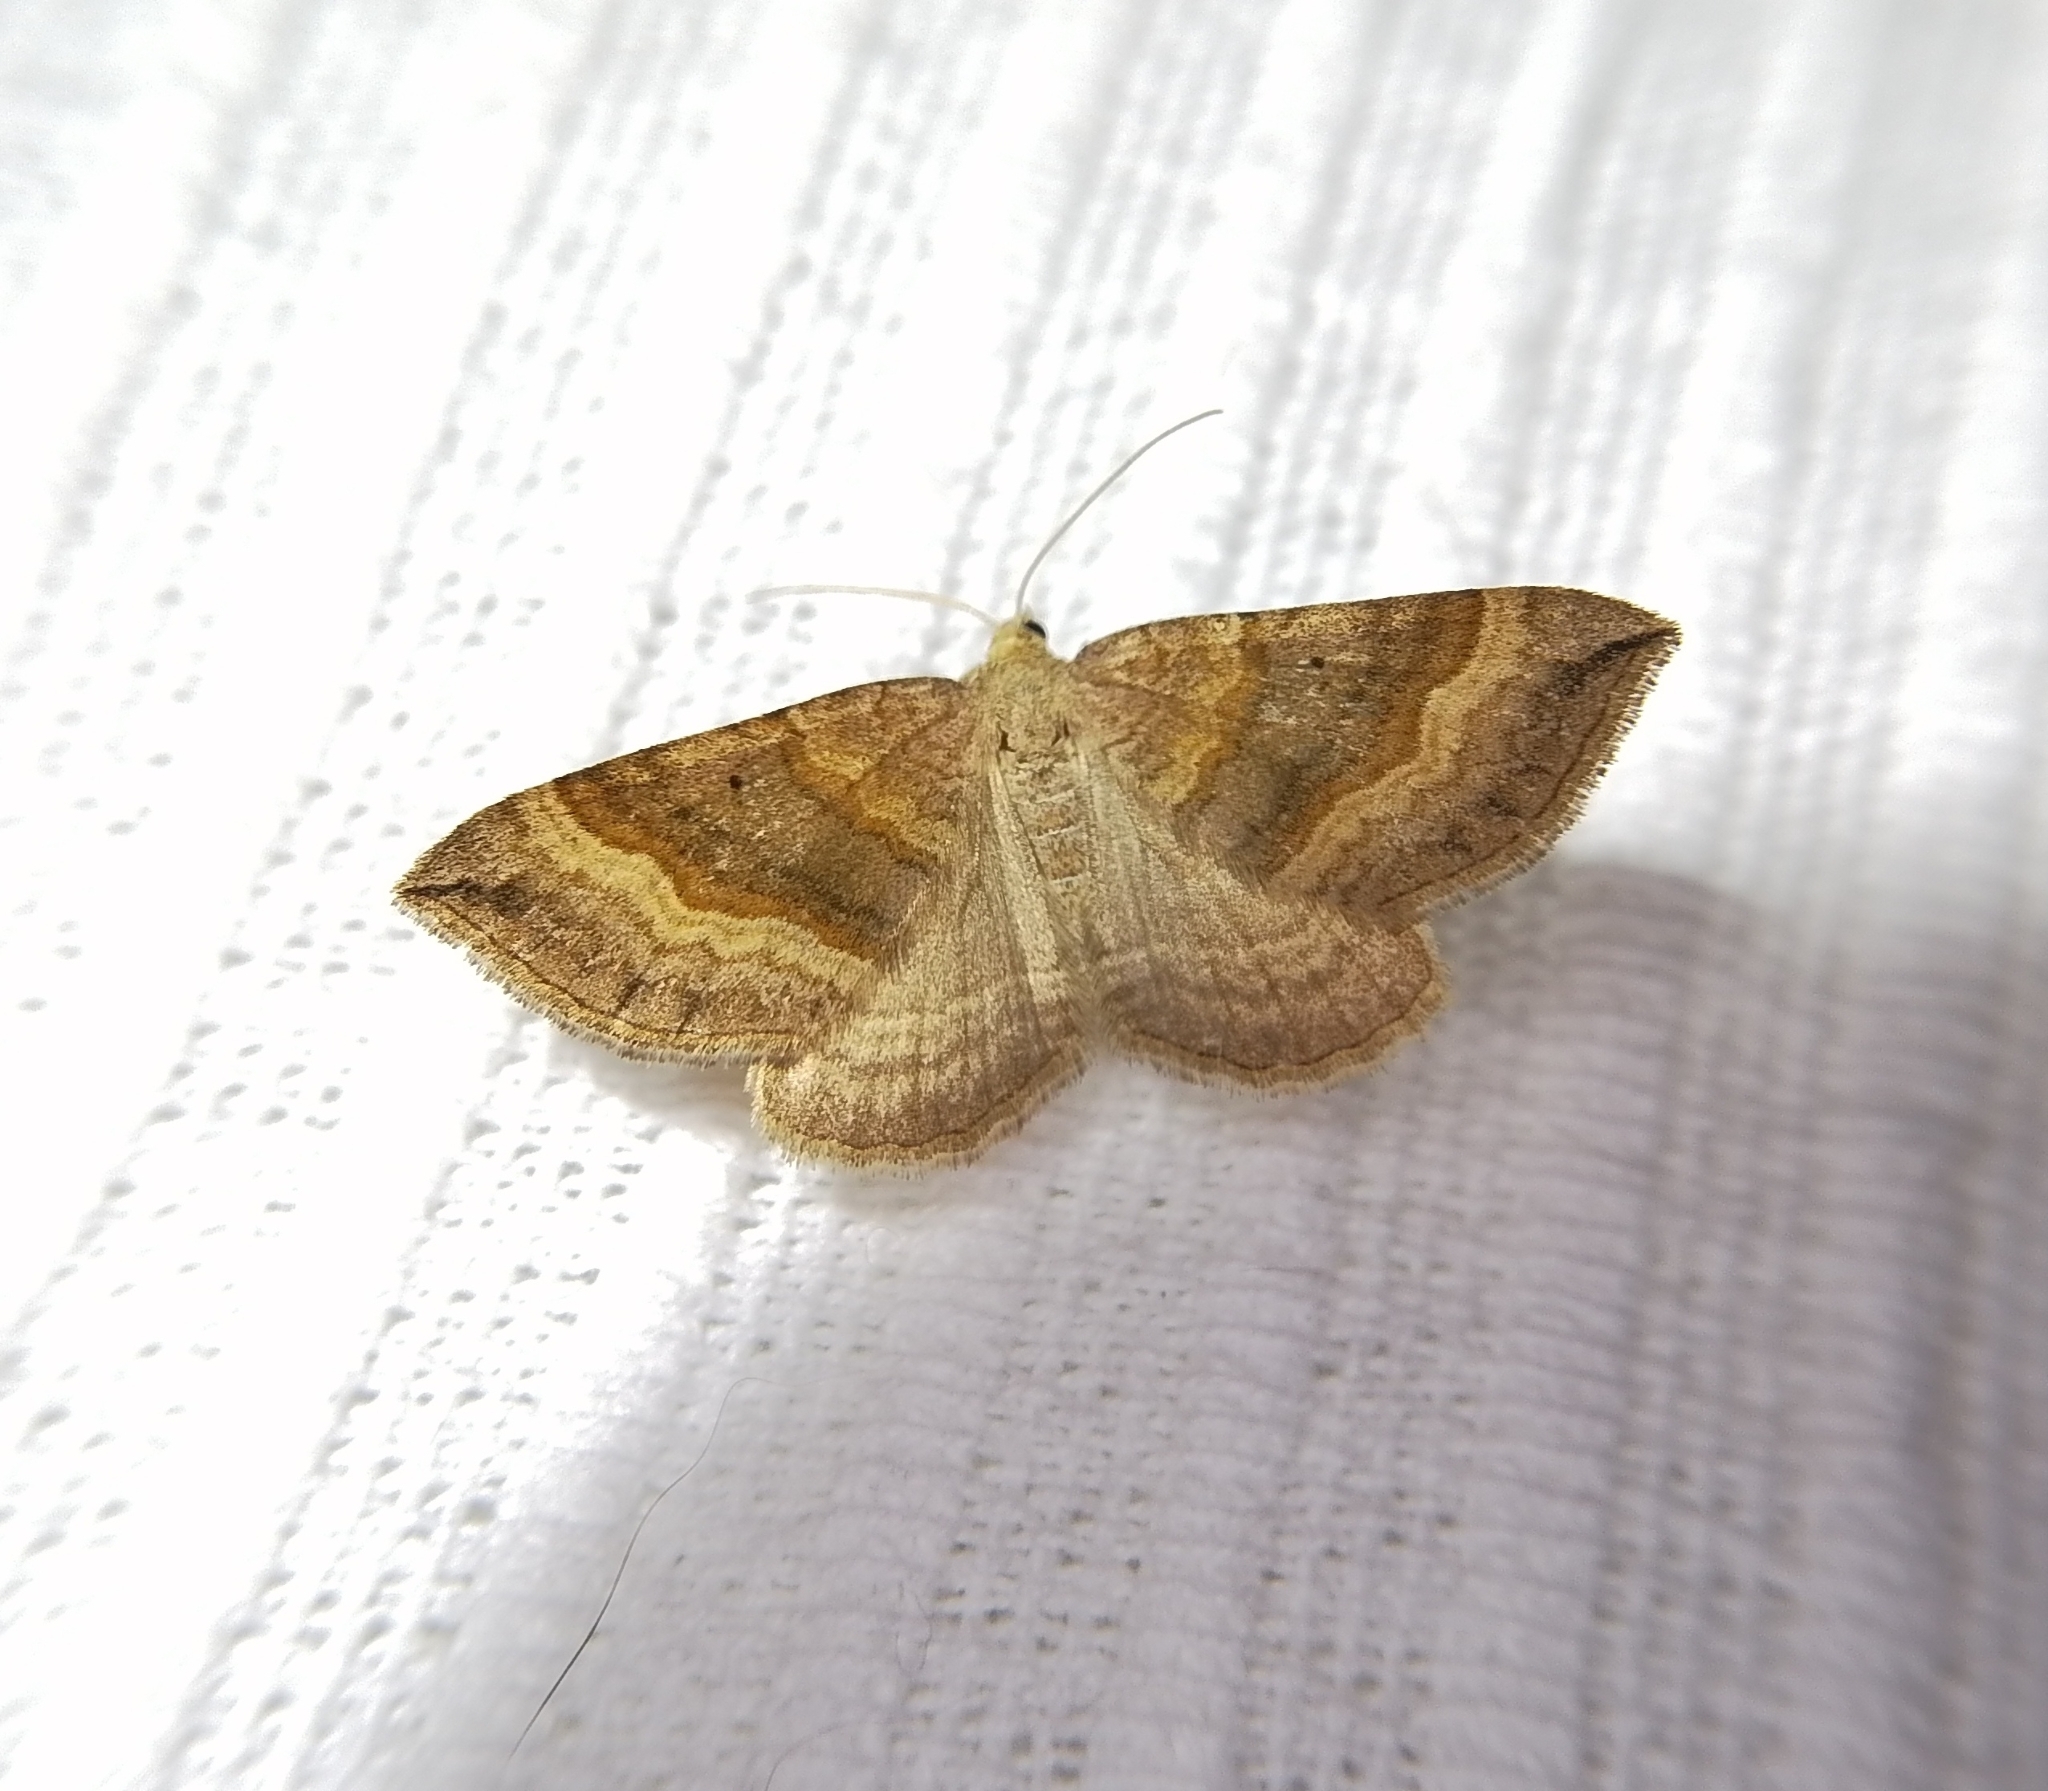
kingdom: Animalia
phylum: Arthropoda
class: Insecta
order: Lepidoptera
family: Geometridae
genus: Scotopteryx
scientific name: Scotopteryx chenopodiata
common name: Shaded broad-bar
